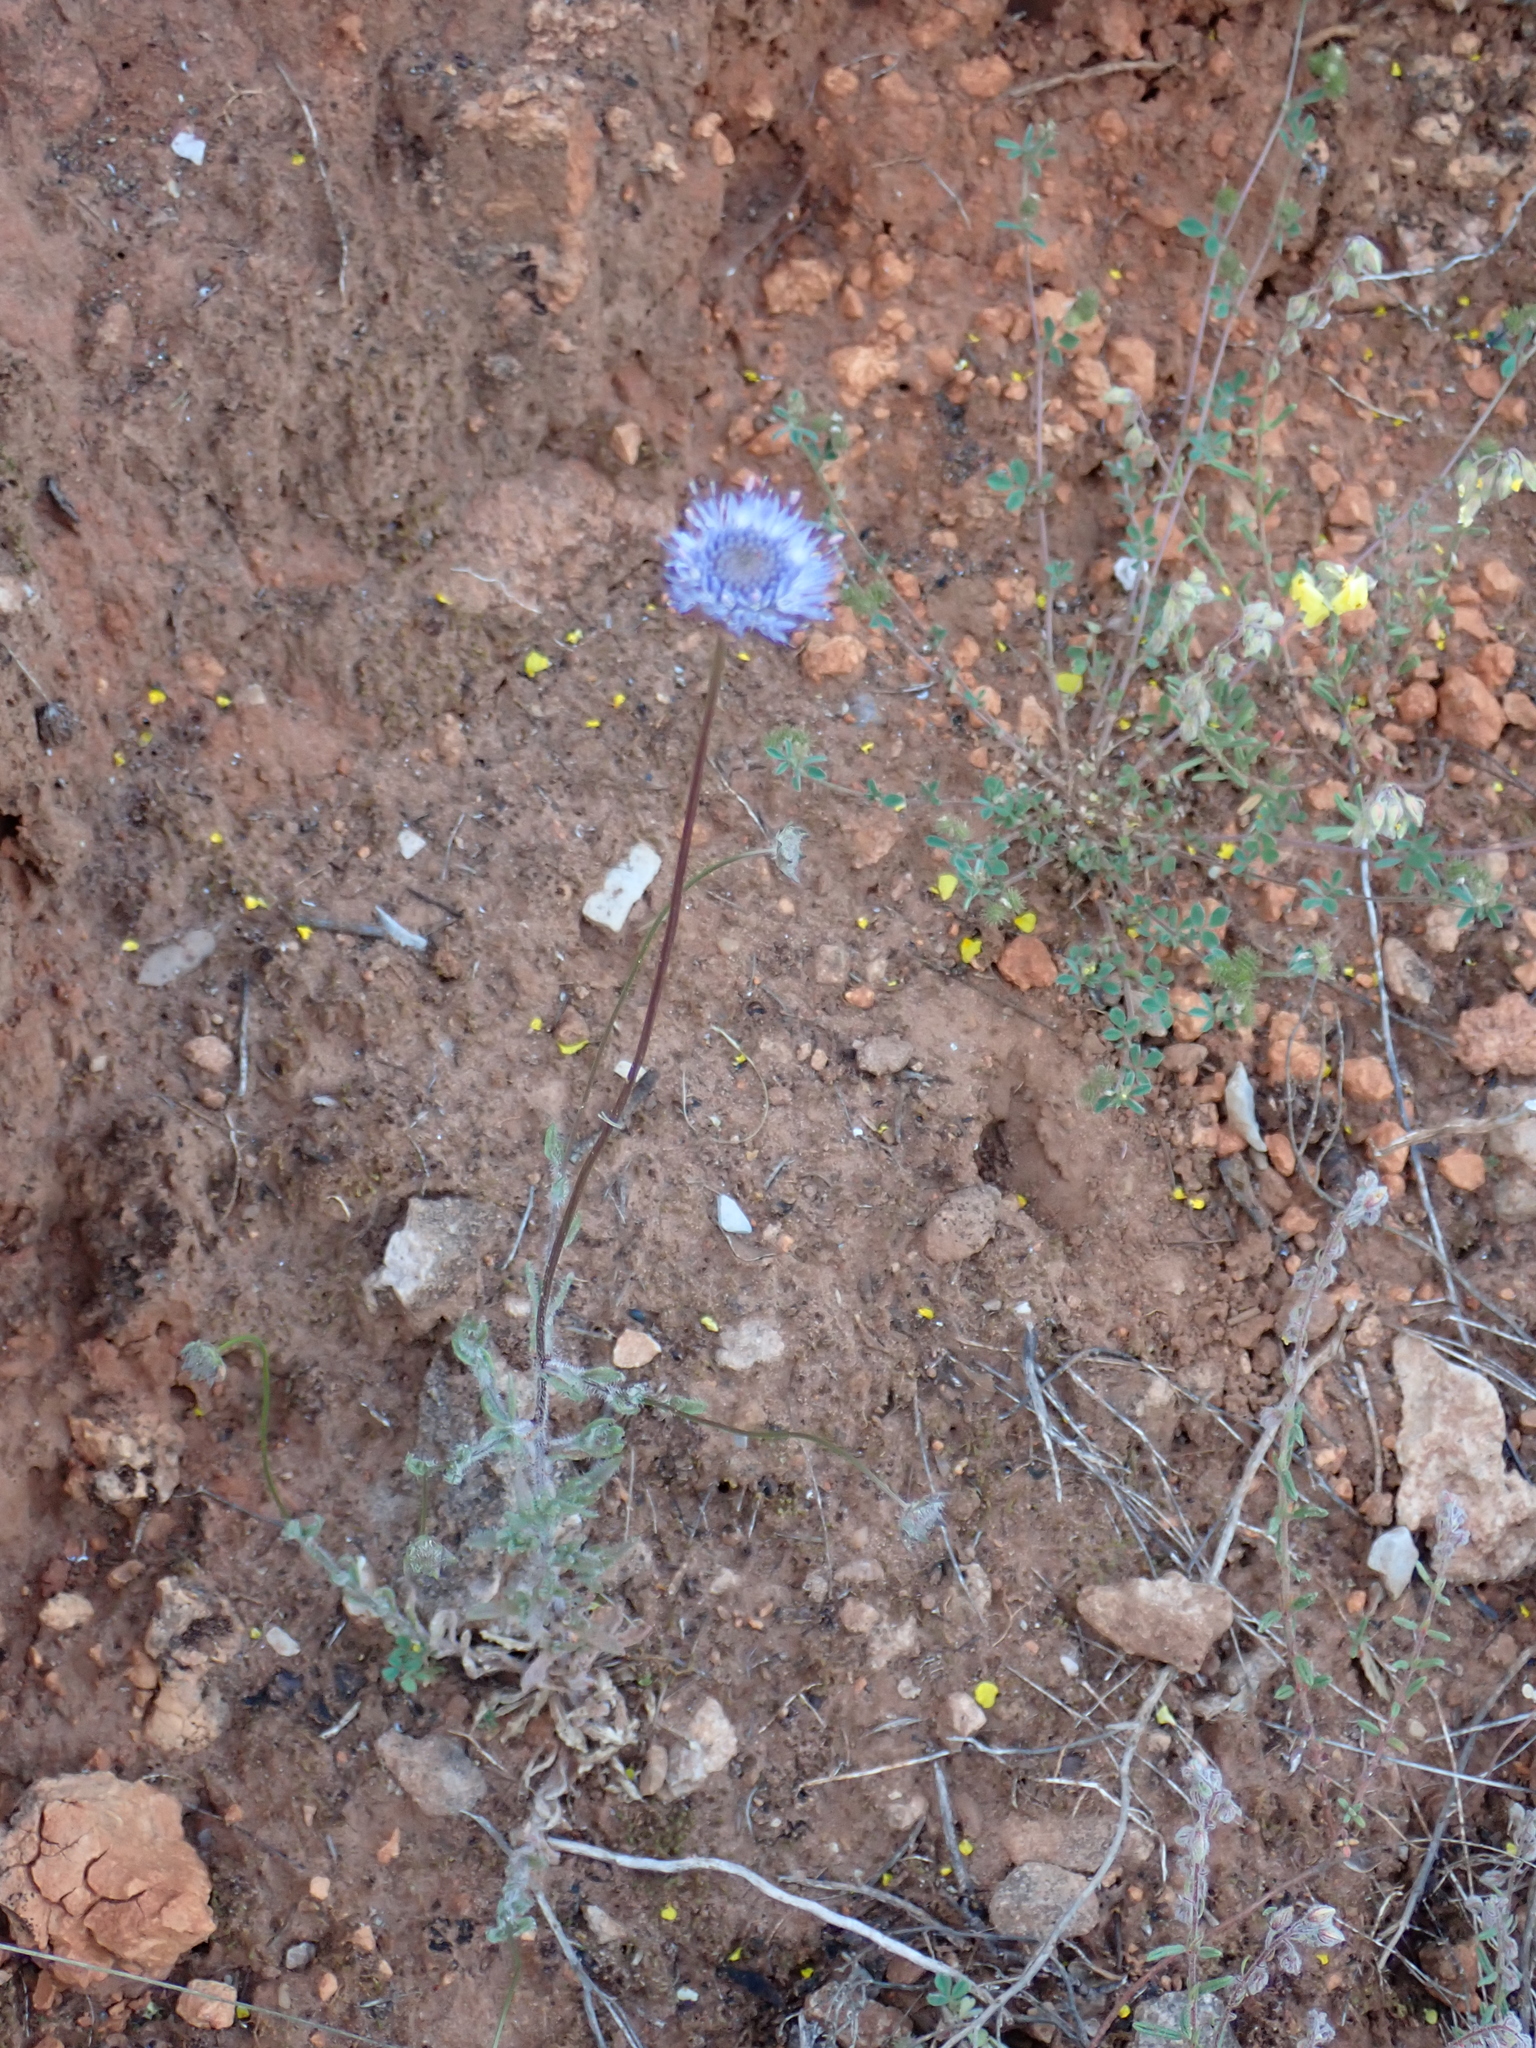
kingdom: Plantae
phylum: Tracheophyta
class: Magnoliopsida
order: Asterales
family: Campanulaceae
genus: Jasione
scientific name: Jasione montana
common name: Sheep's-bit
